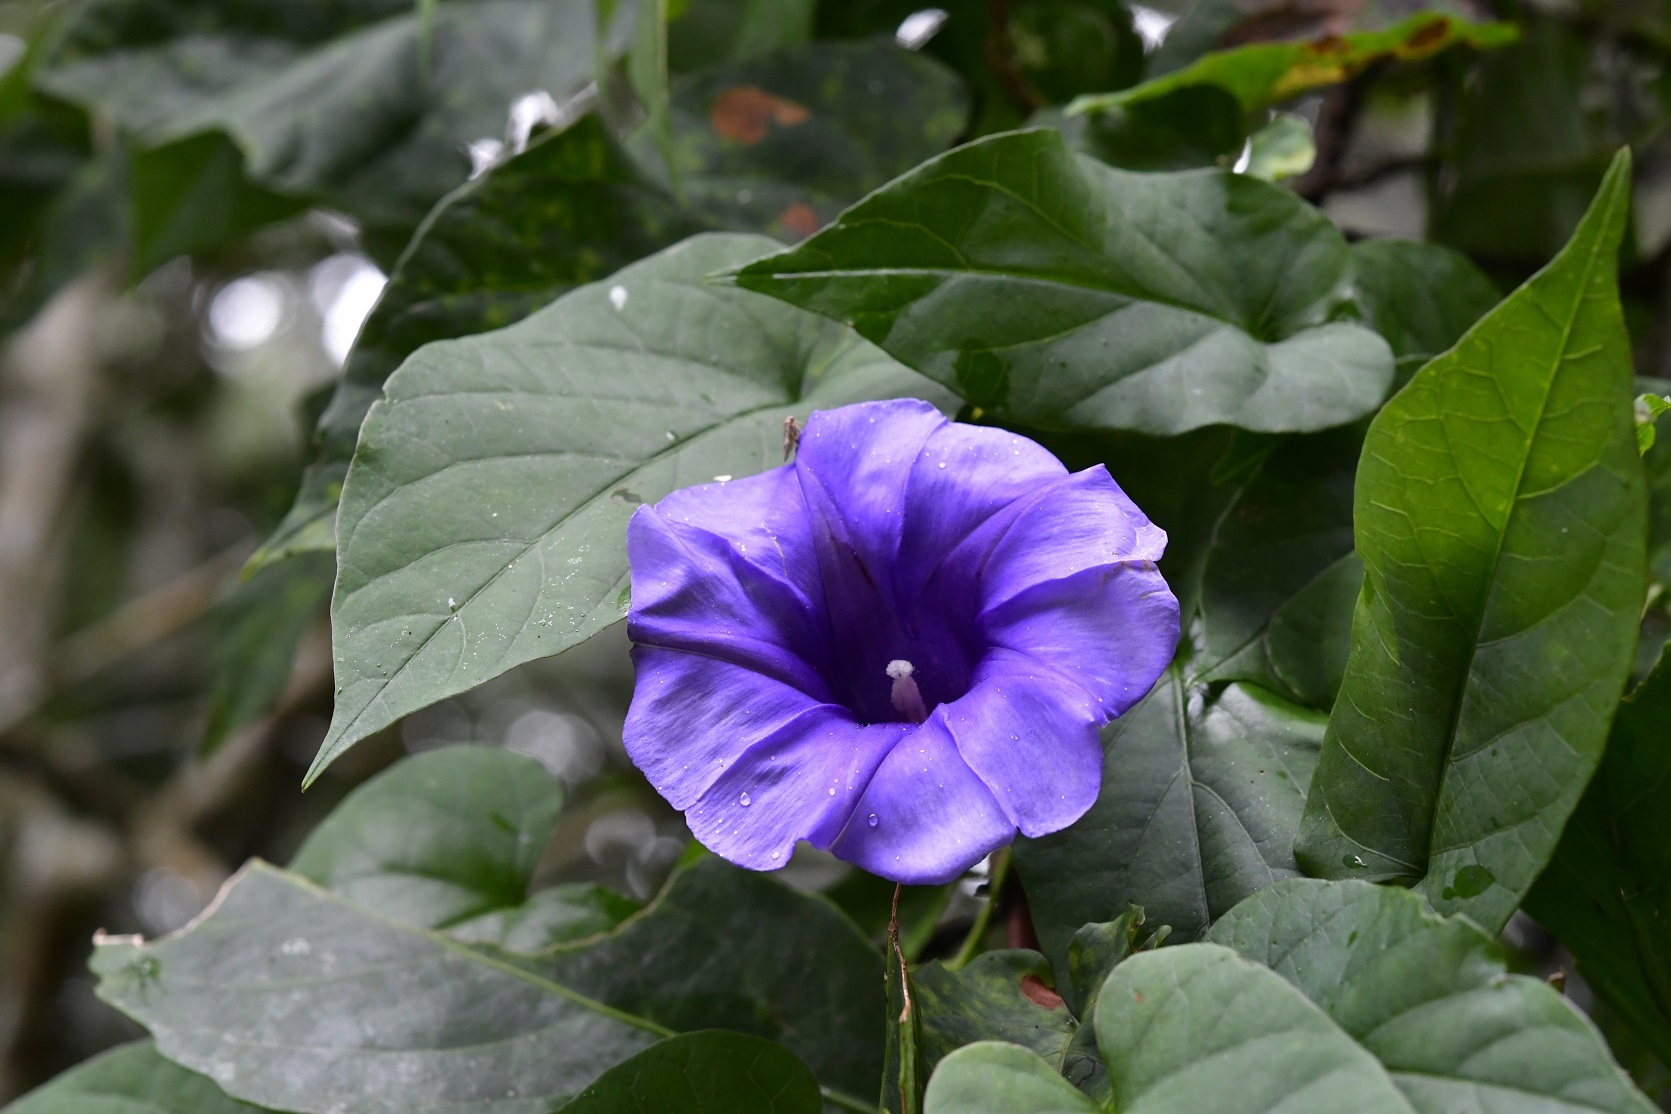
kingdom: Plantae
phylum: Tracheophyta
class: Magnoliopsida
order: Solanales
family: Convolvulaceae
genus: Ipomoea
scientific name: Ipomoea lindenii
